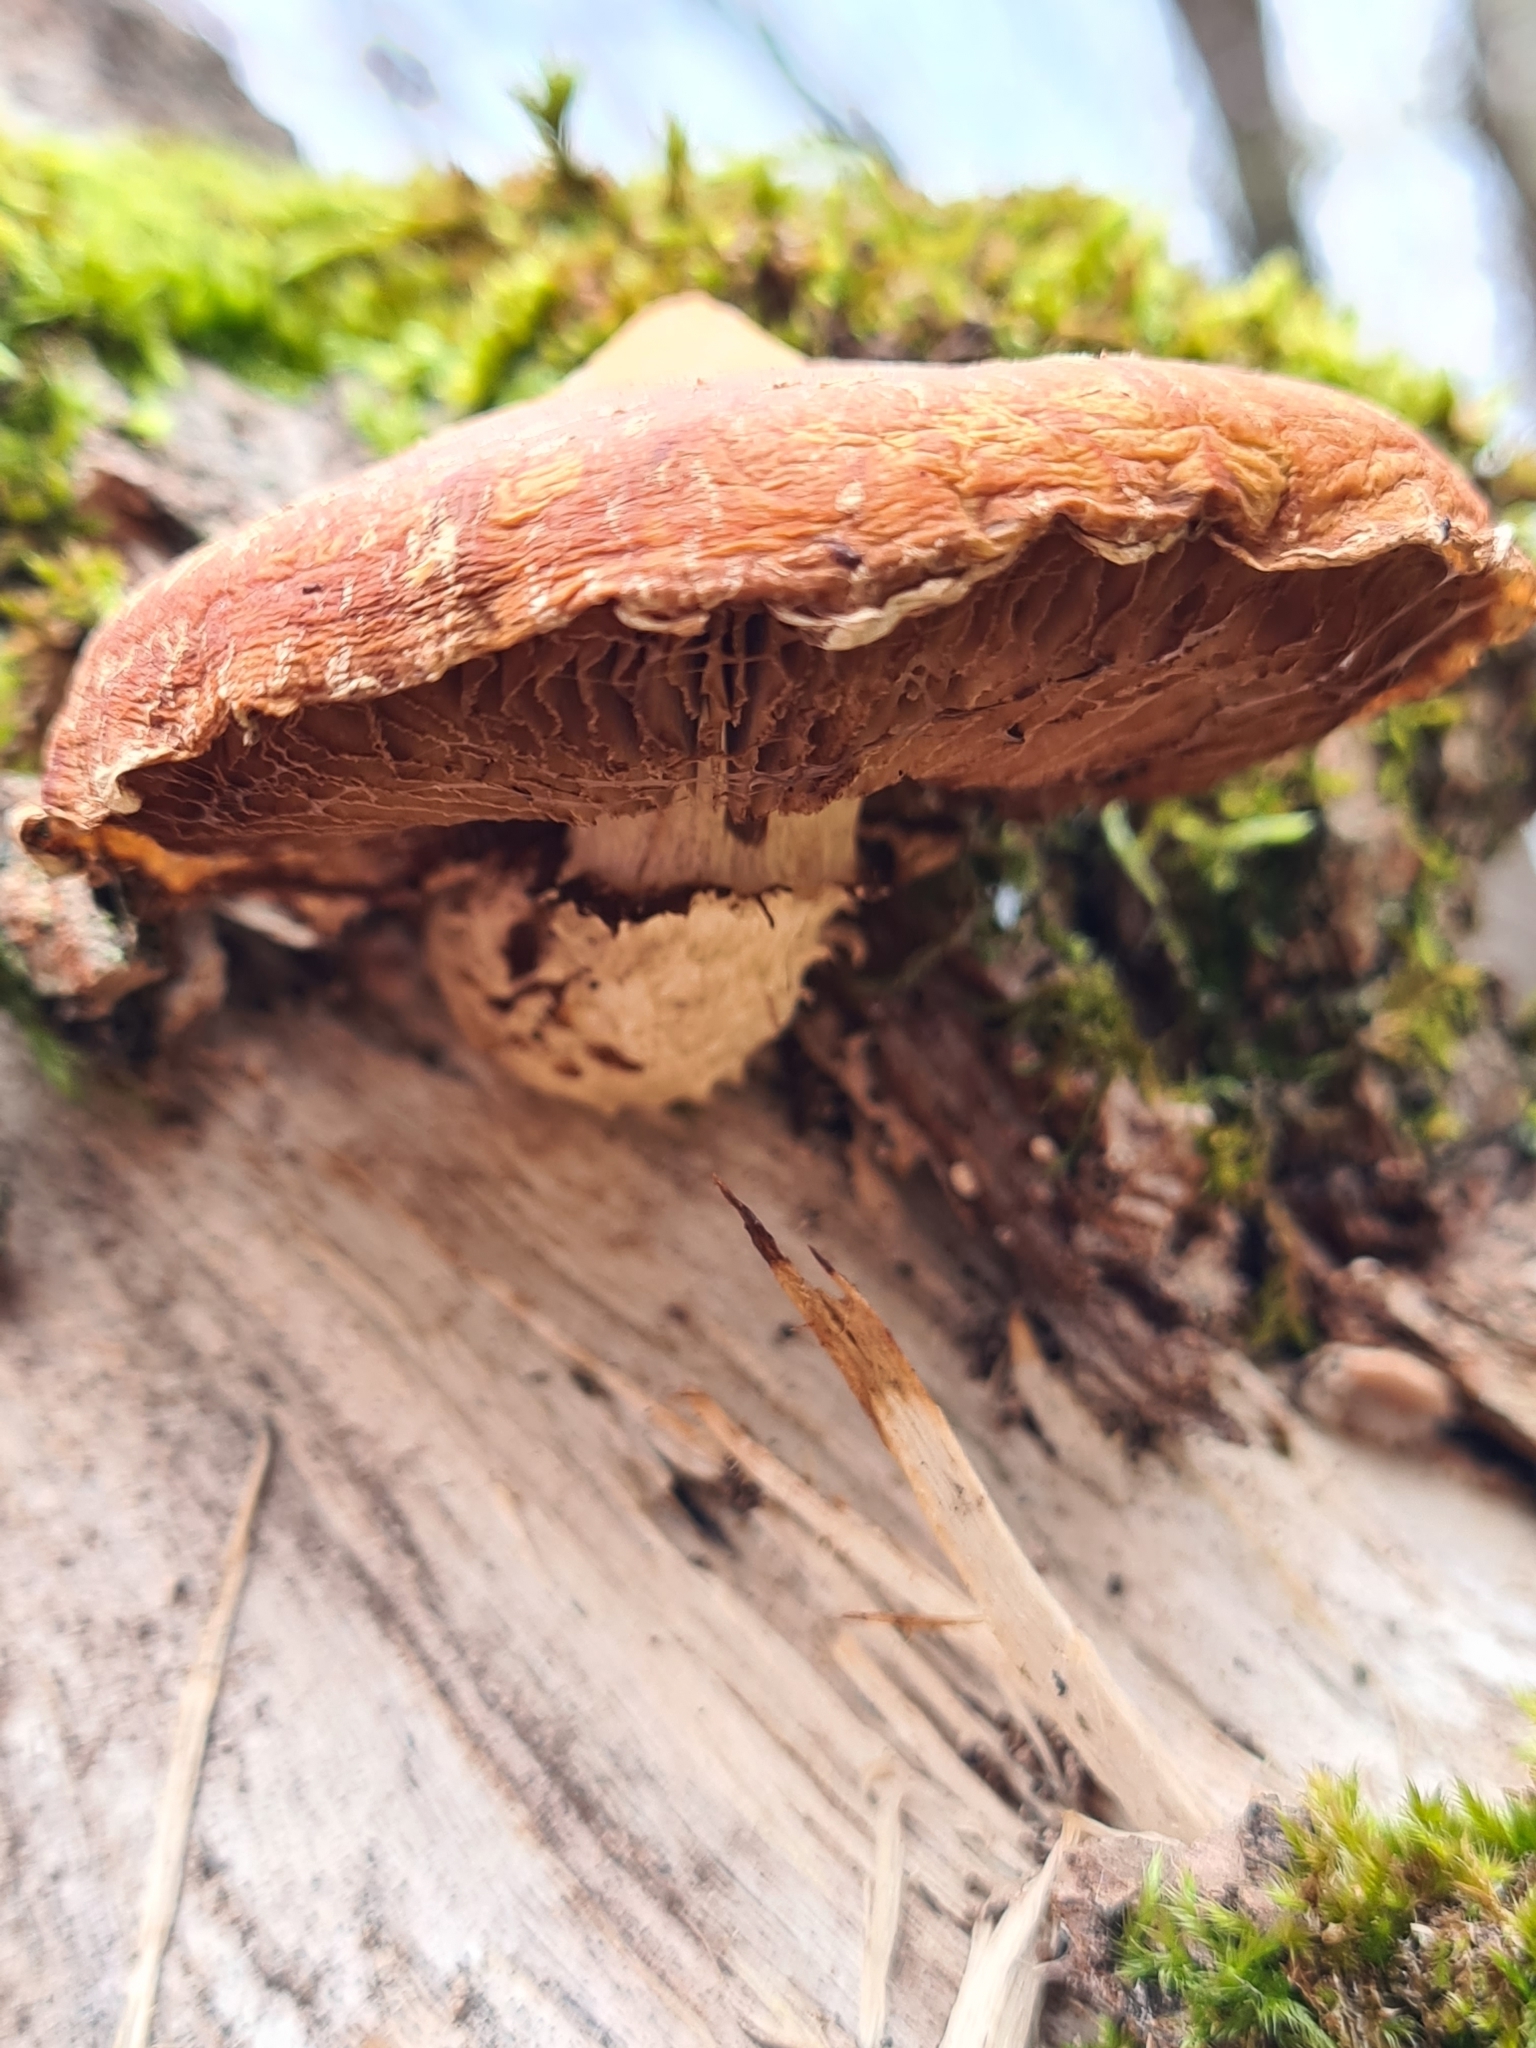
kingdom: Fungi
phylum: Basidiomycota
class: Agaricomycetes
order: Agaricales
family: Strophariaceae
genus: Pholiota
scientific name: Pholiota populnea
